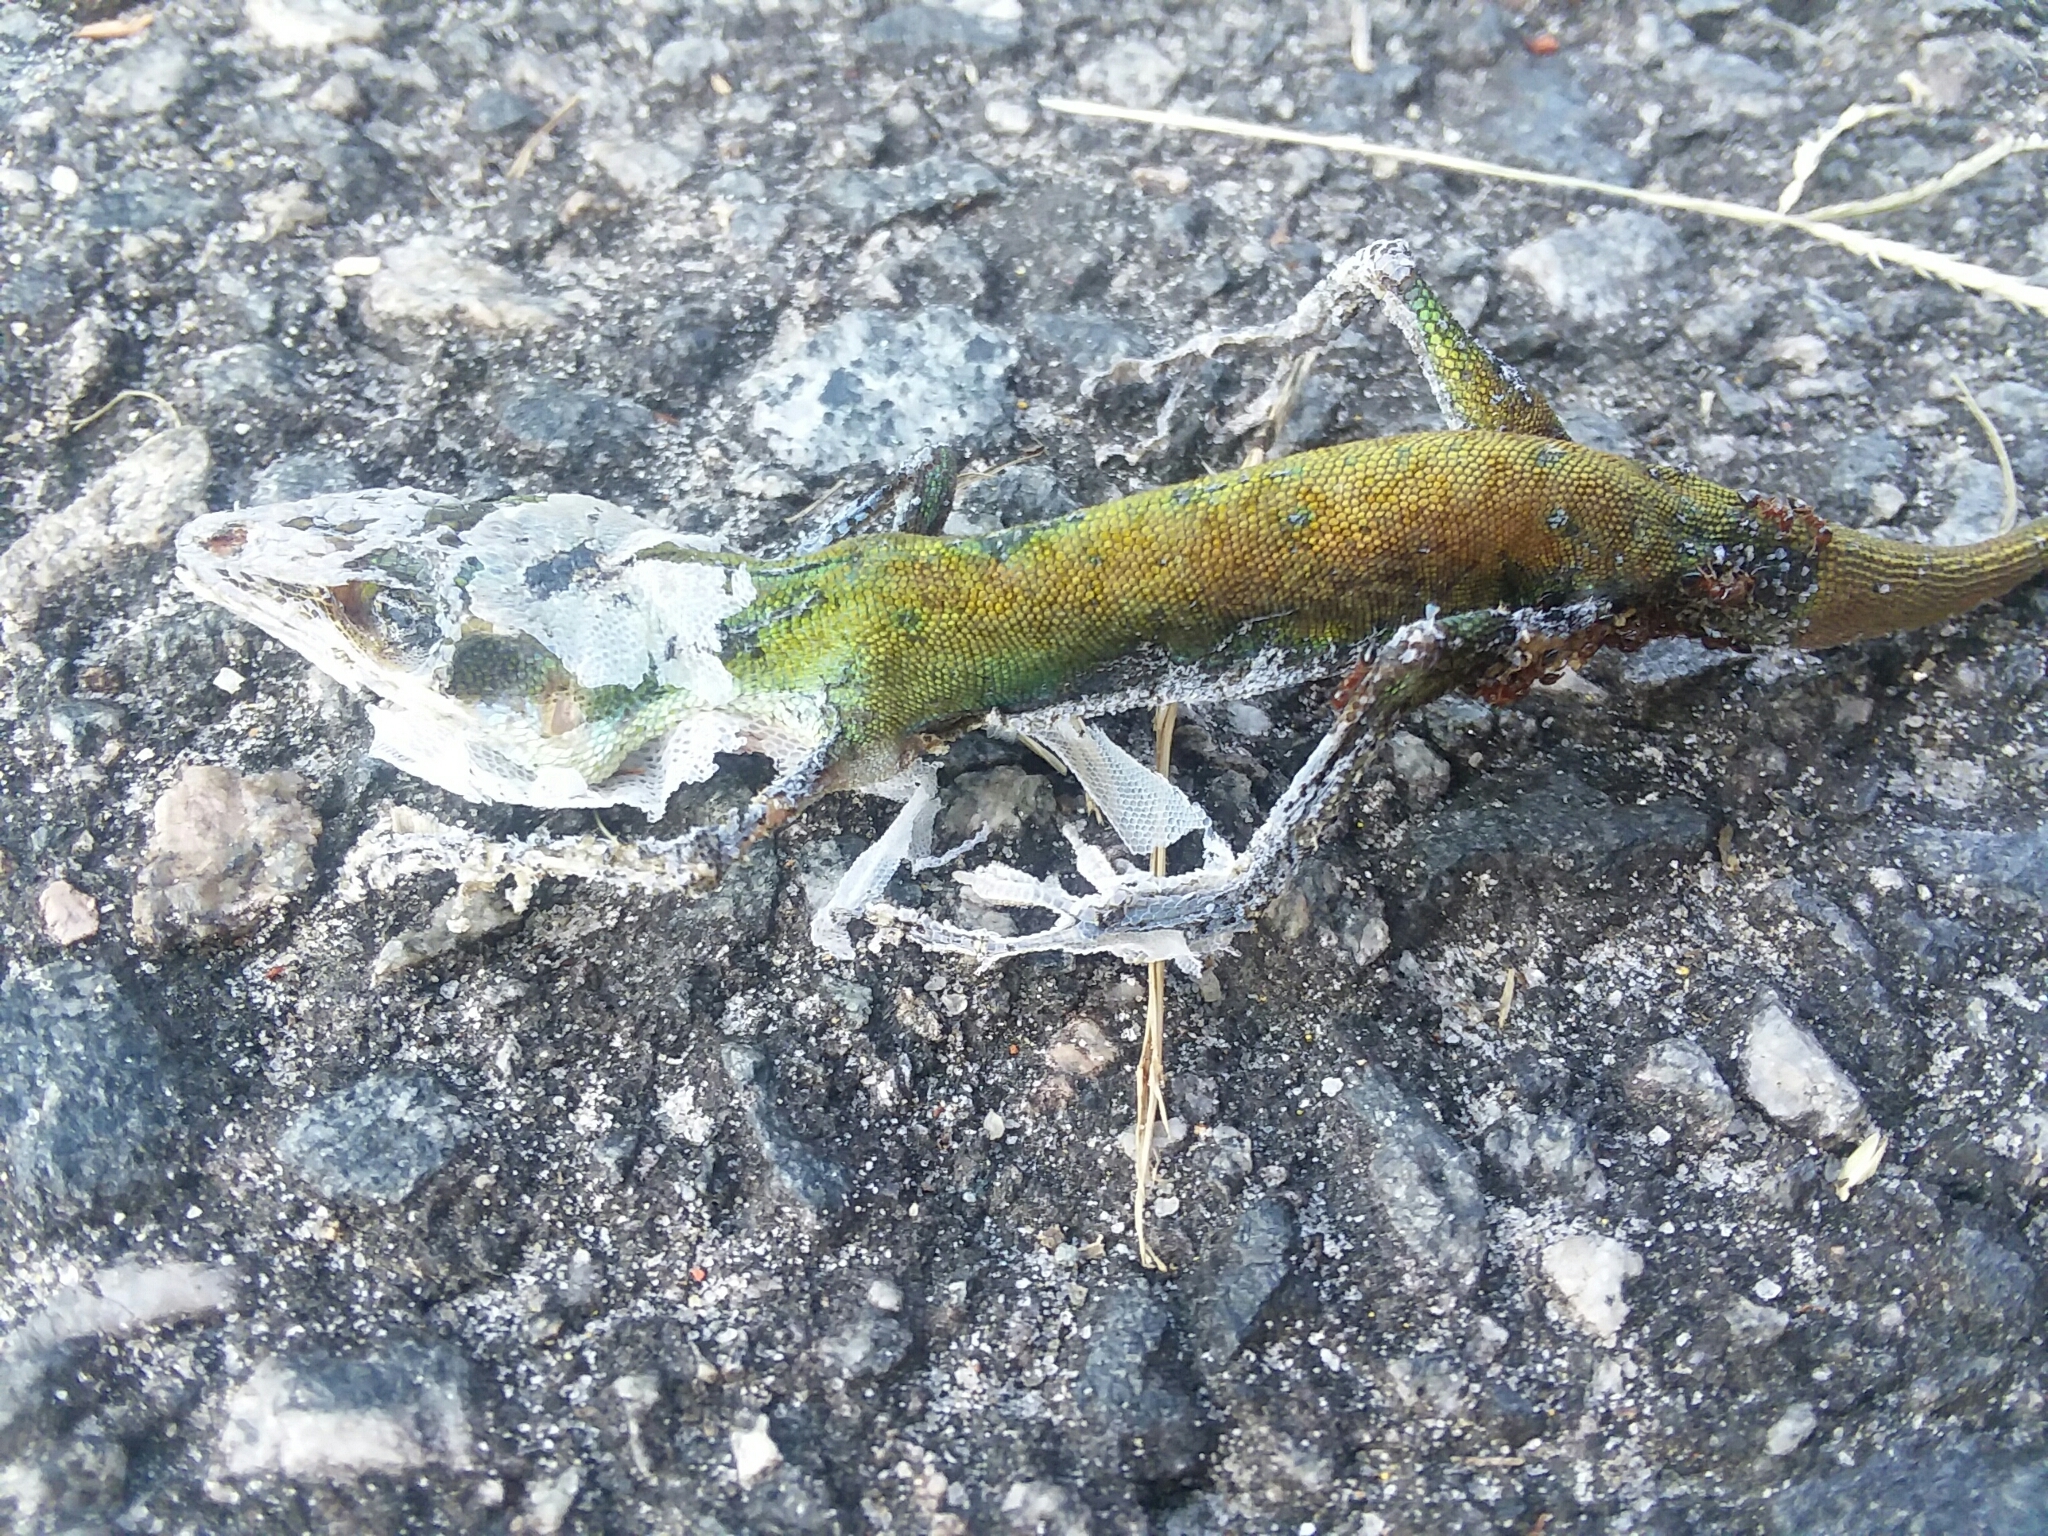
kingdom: Animalia
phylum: Chordata
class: Squamata
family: Dactyloidae
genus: Anolis
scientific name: Anolis carolinensis
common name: Green anole
